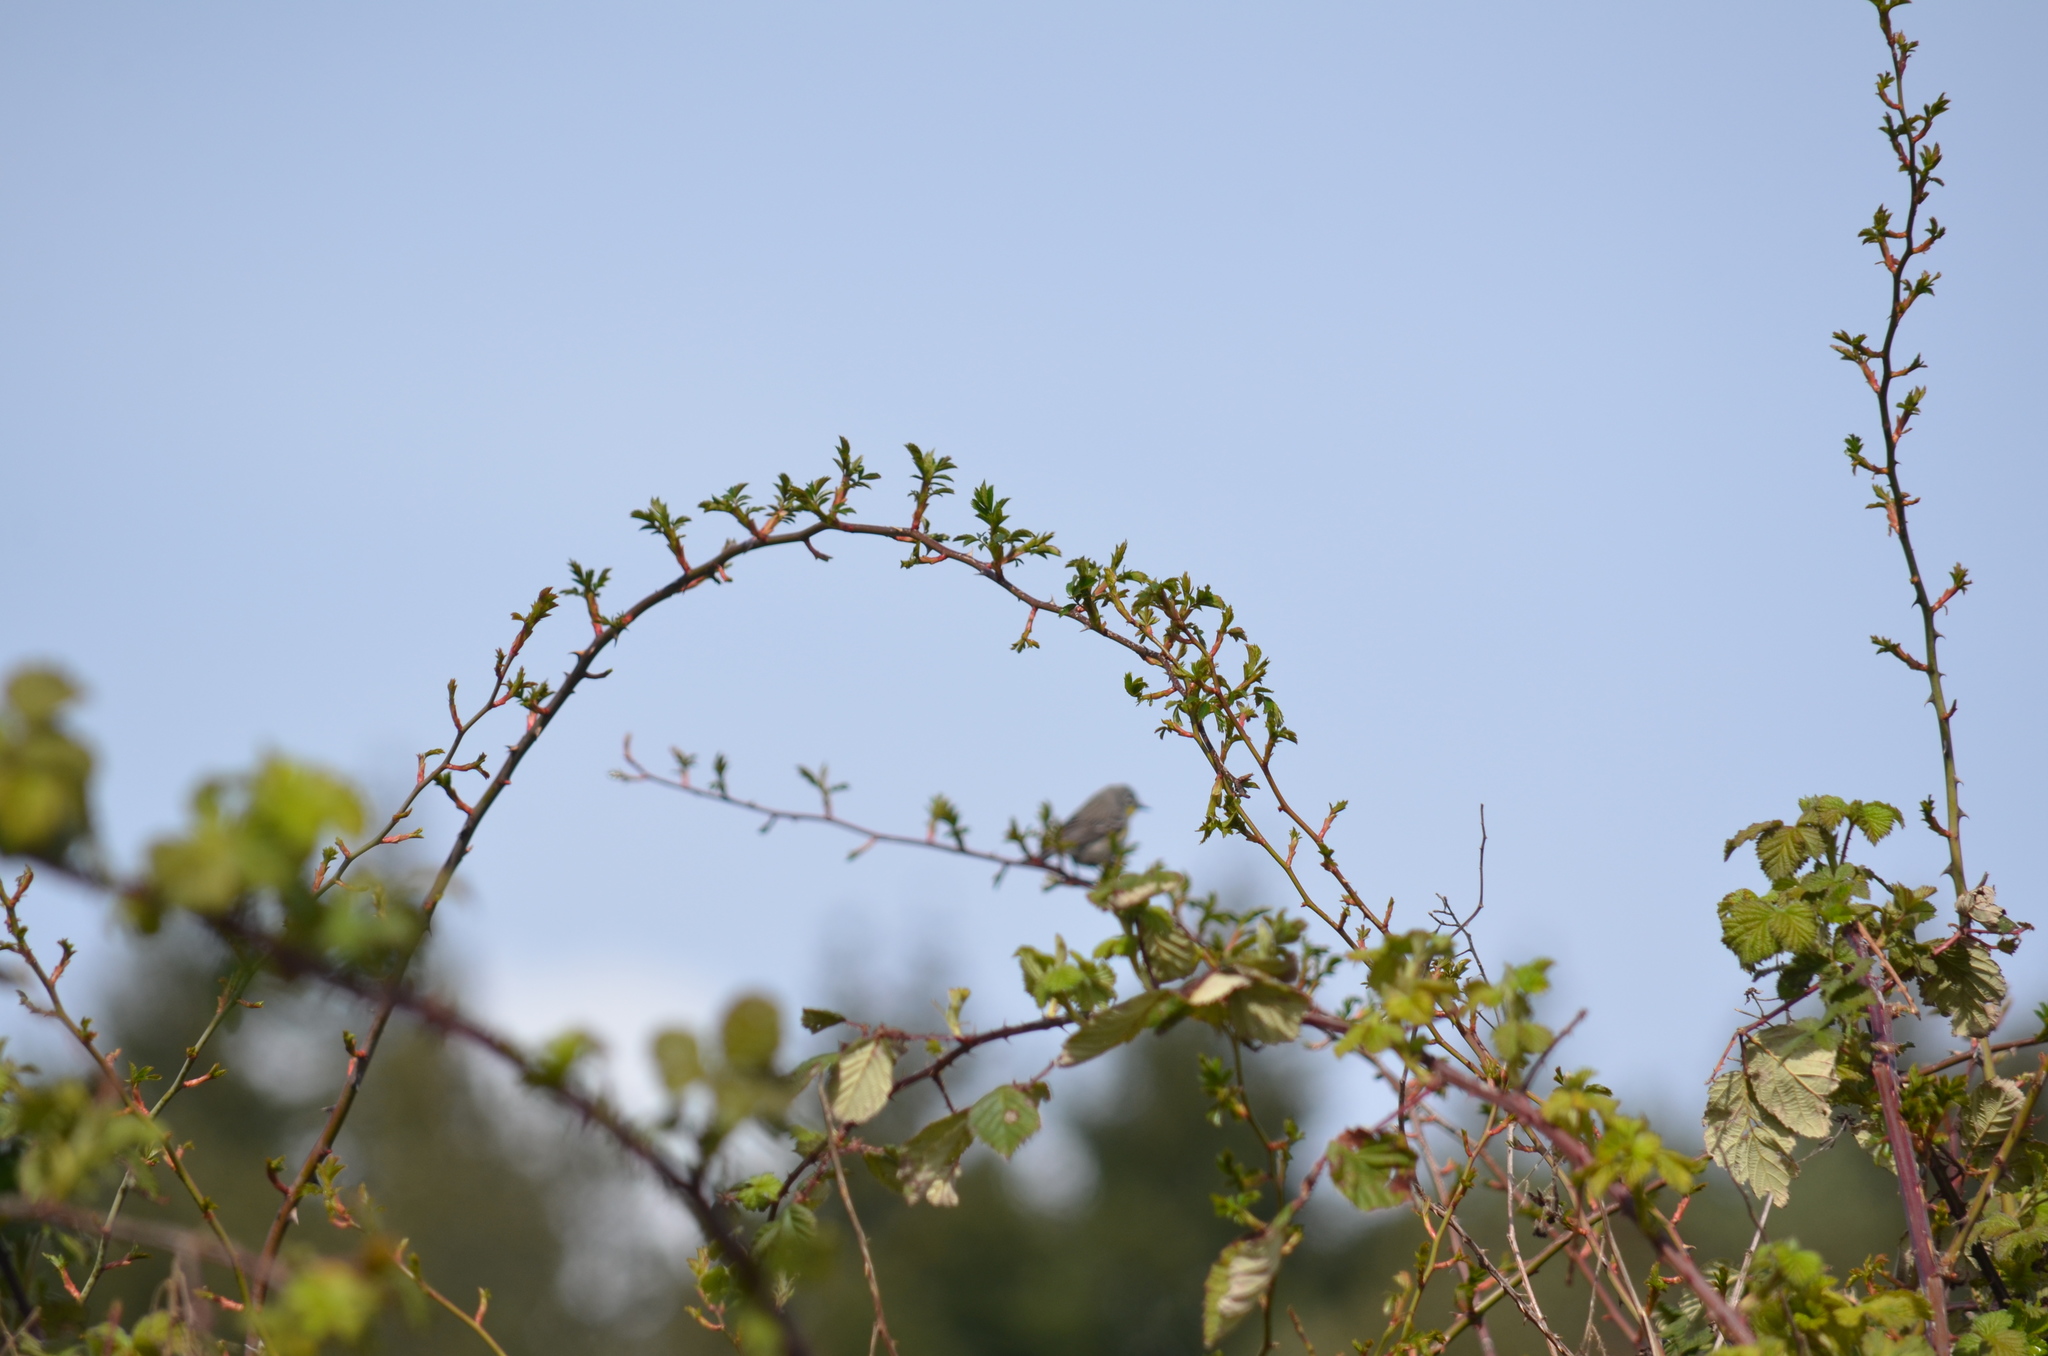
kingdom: Animalia
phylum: Chordata
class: Aves
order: Passeriformes
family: Parulidae
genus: Setophaga
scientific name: Setophaga coronata
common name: Myrtle warbler
